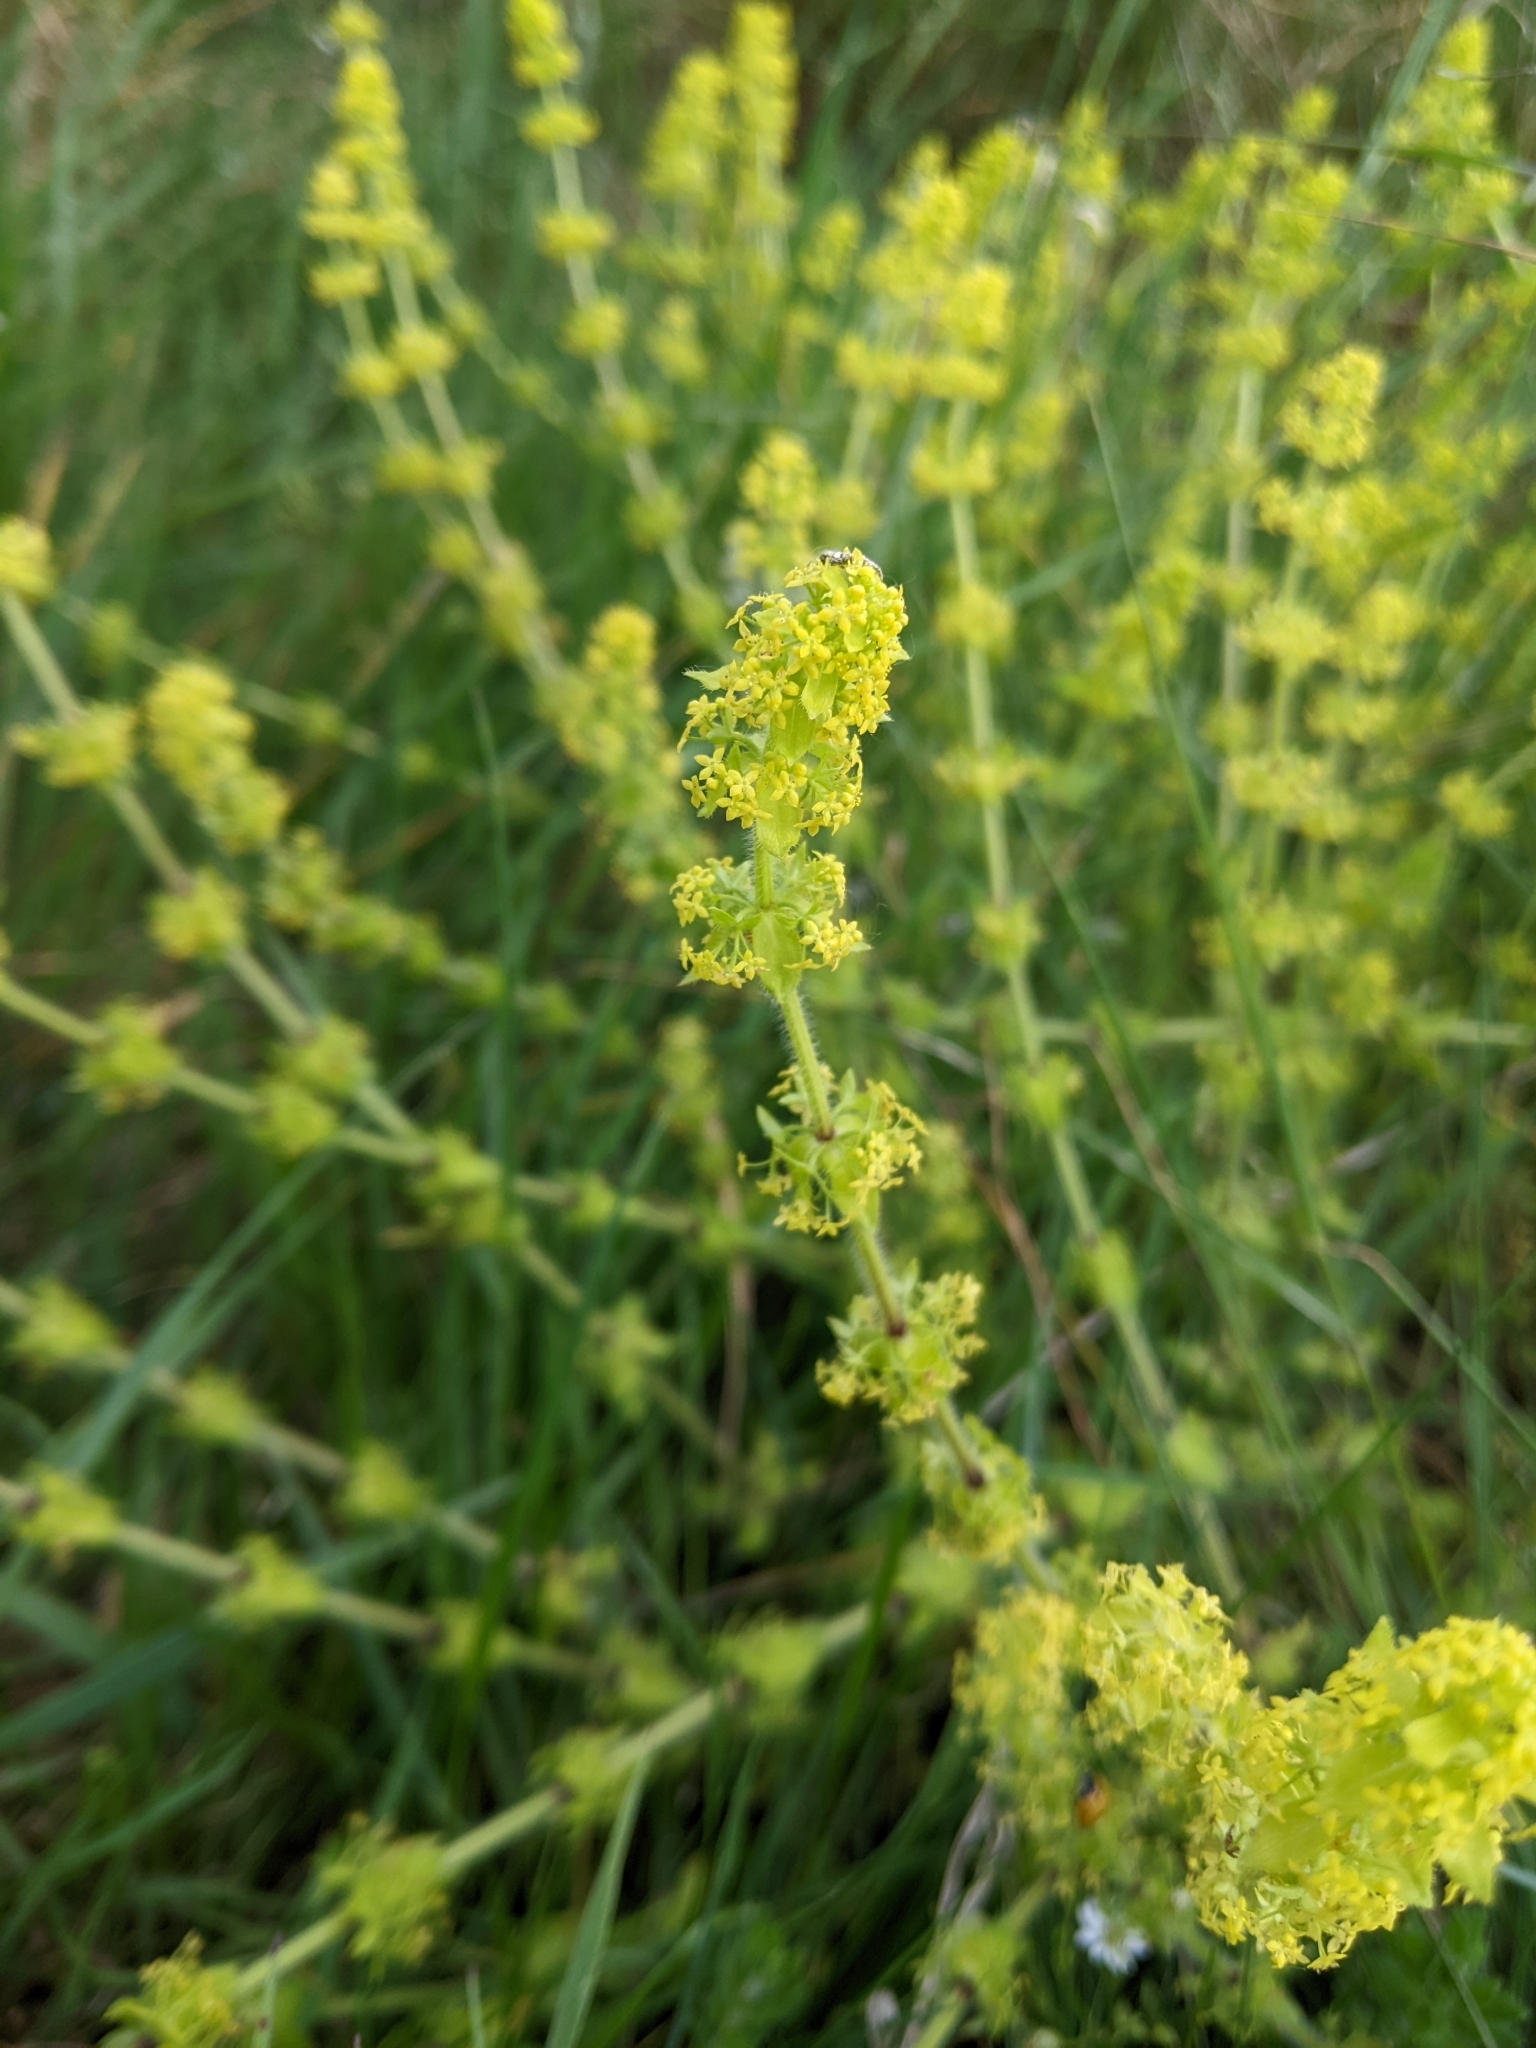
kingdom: Plantae
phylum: Tracheophyta
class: Magnoliopsida
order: Gentianales
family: Rubiaceae
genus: Cruciata
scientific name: Cruciata laevipes
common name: Crosswort
